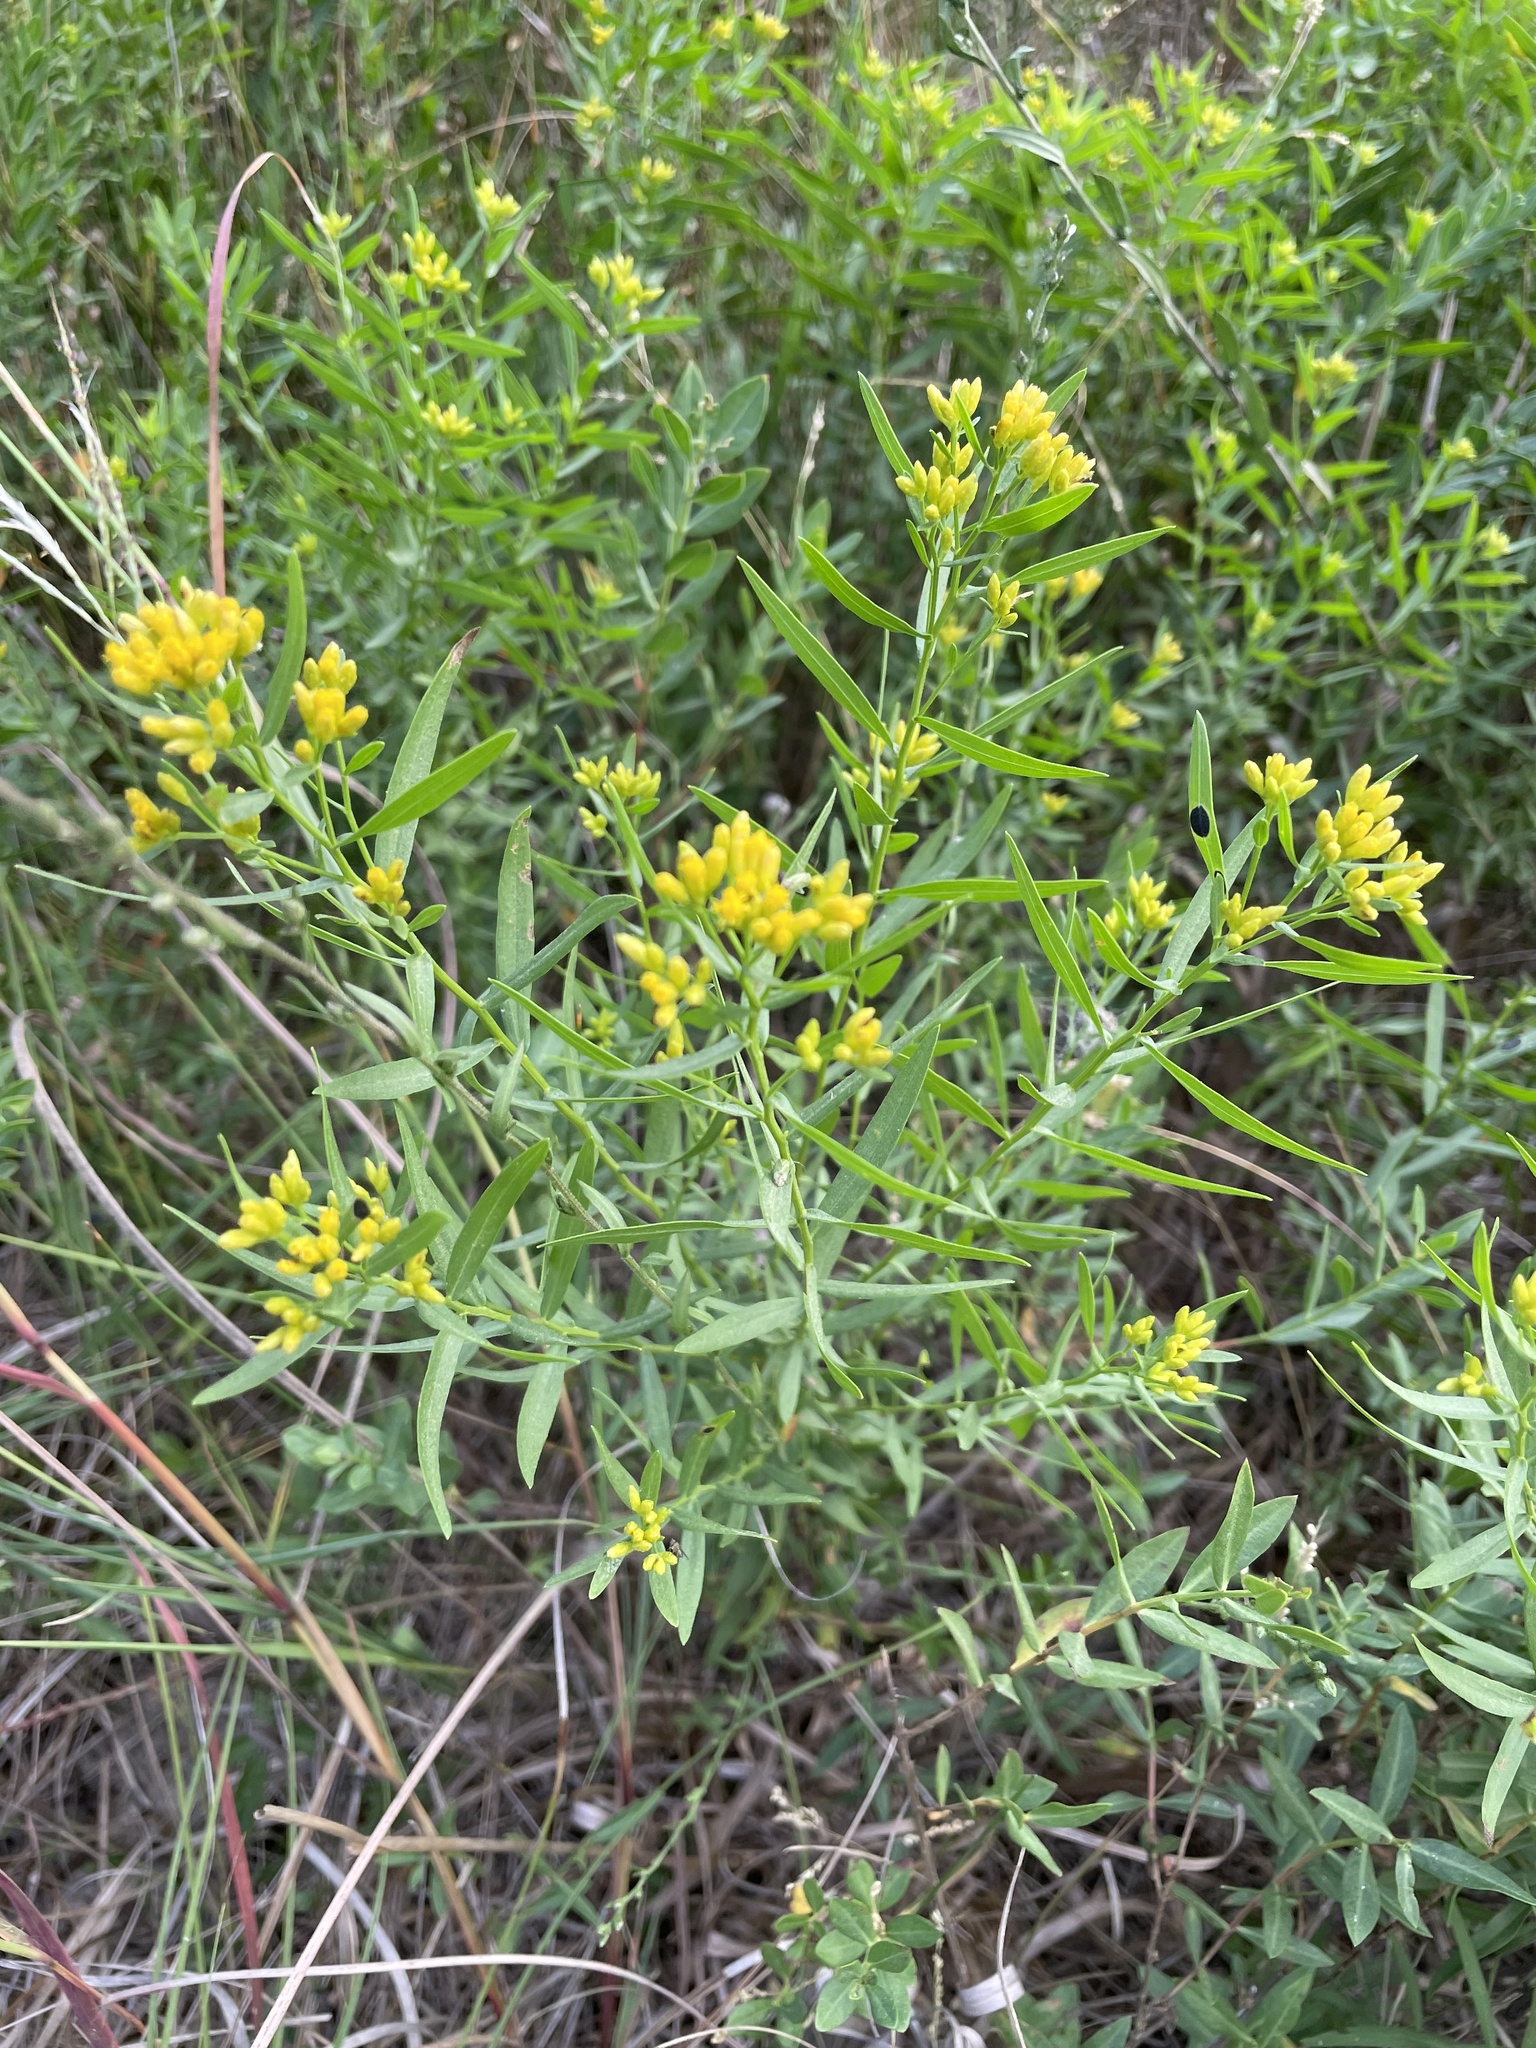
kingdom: Plantae
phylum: Tracheophyta
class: Magnoliopsida
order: Asterales
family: Asteraceae
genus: Euthamia
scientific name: Euthamia leptocephala
